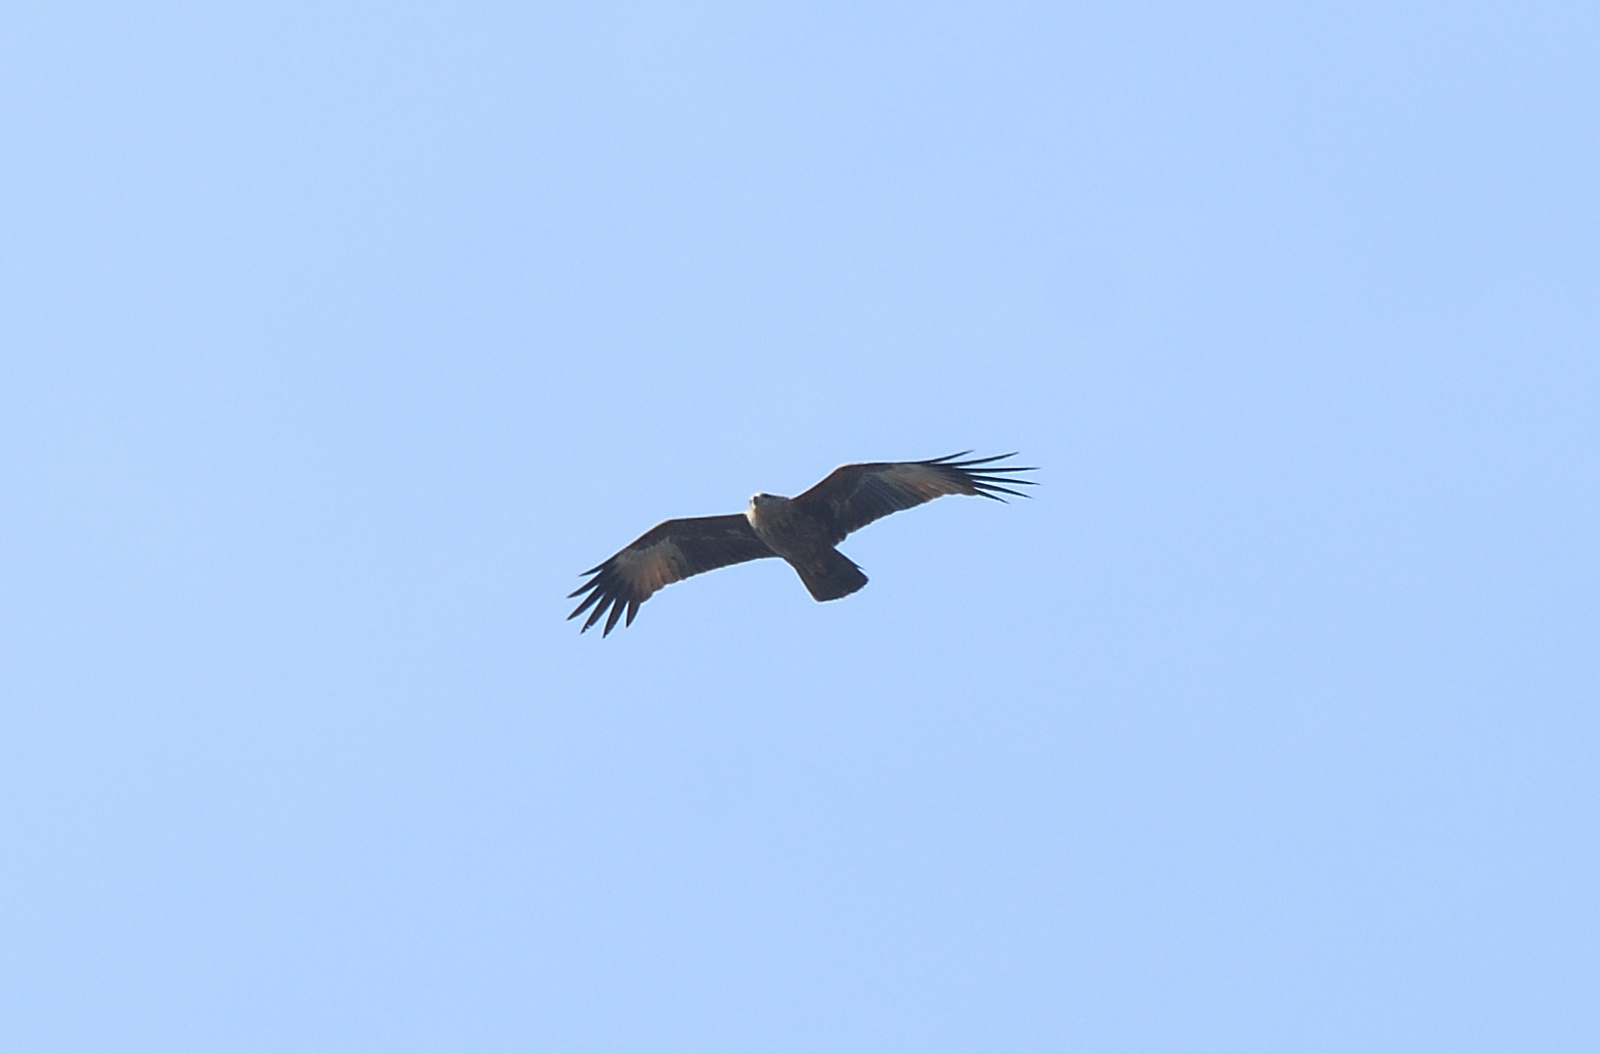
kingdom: Animalia
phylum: Chordata
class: Aves
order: Accipitriformes
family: Accipitridae
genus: Haliastur
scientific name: Haliastur indus
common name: Brahminy kite
